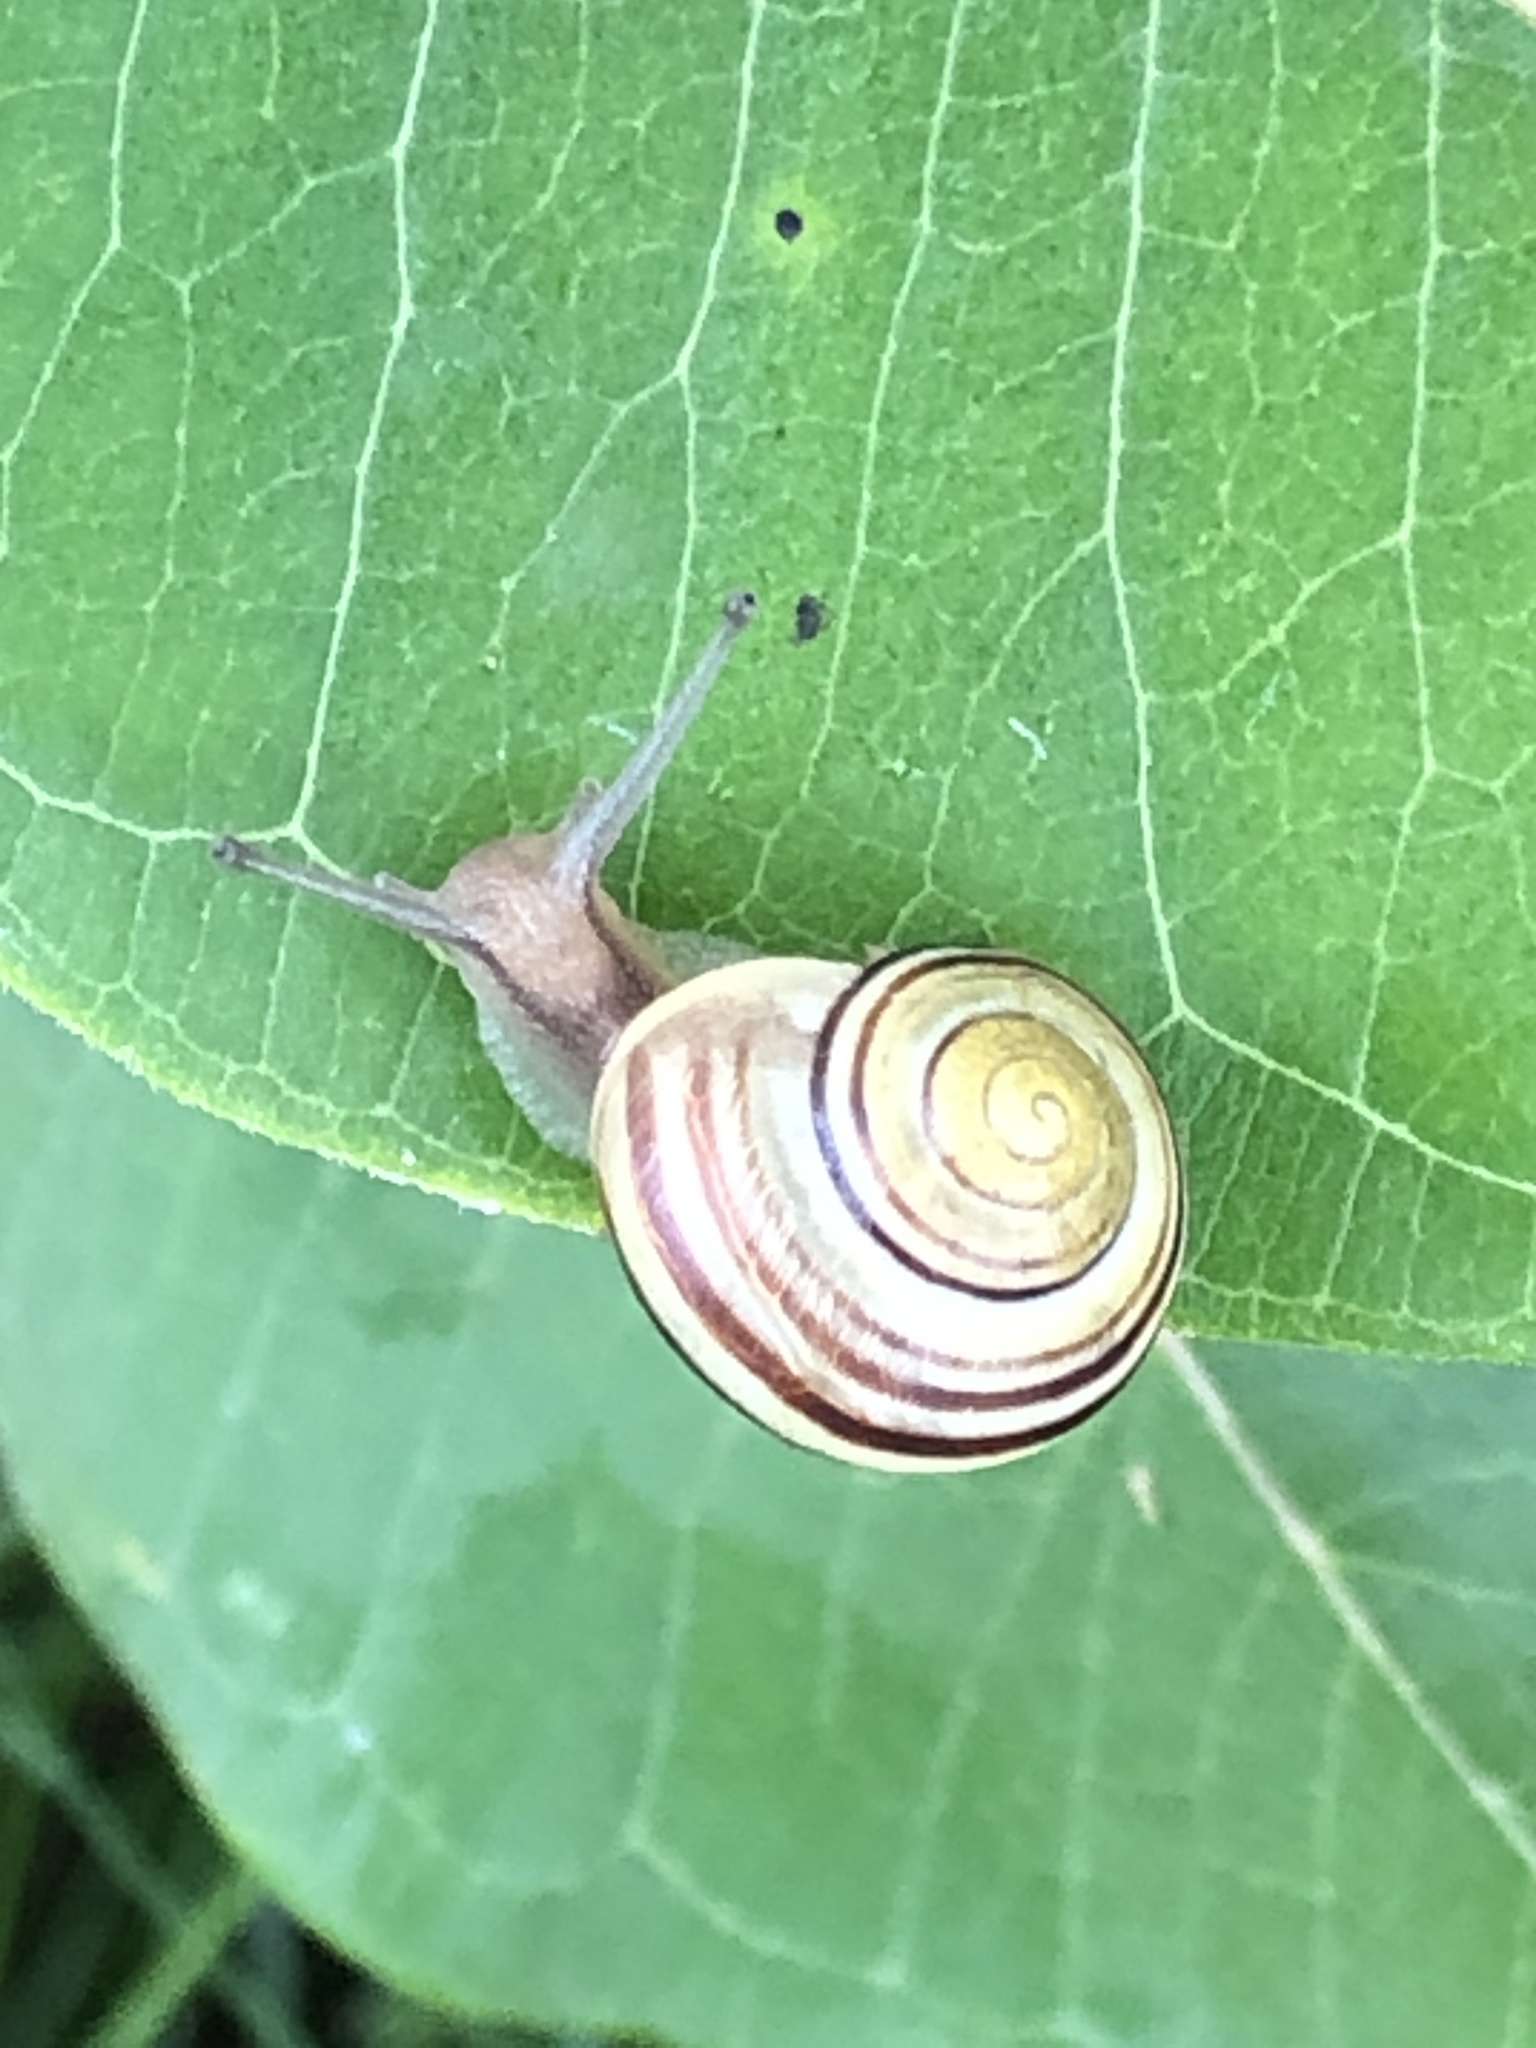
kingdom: Animalia
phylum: Mollusca
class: Gastropoda
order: Stylommatophora
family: Helicidae
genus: Cepaea
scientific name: Cepaea nemoralis
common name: Grovesnail
